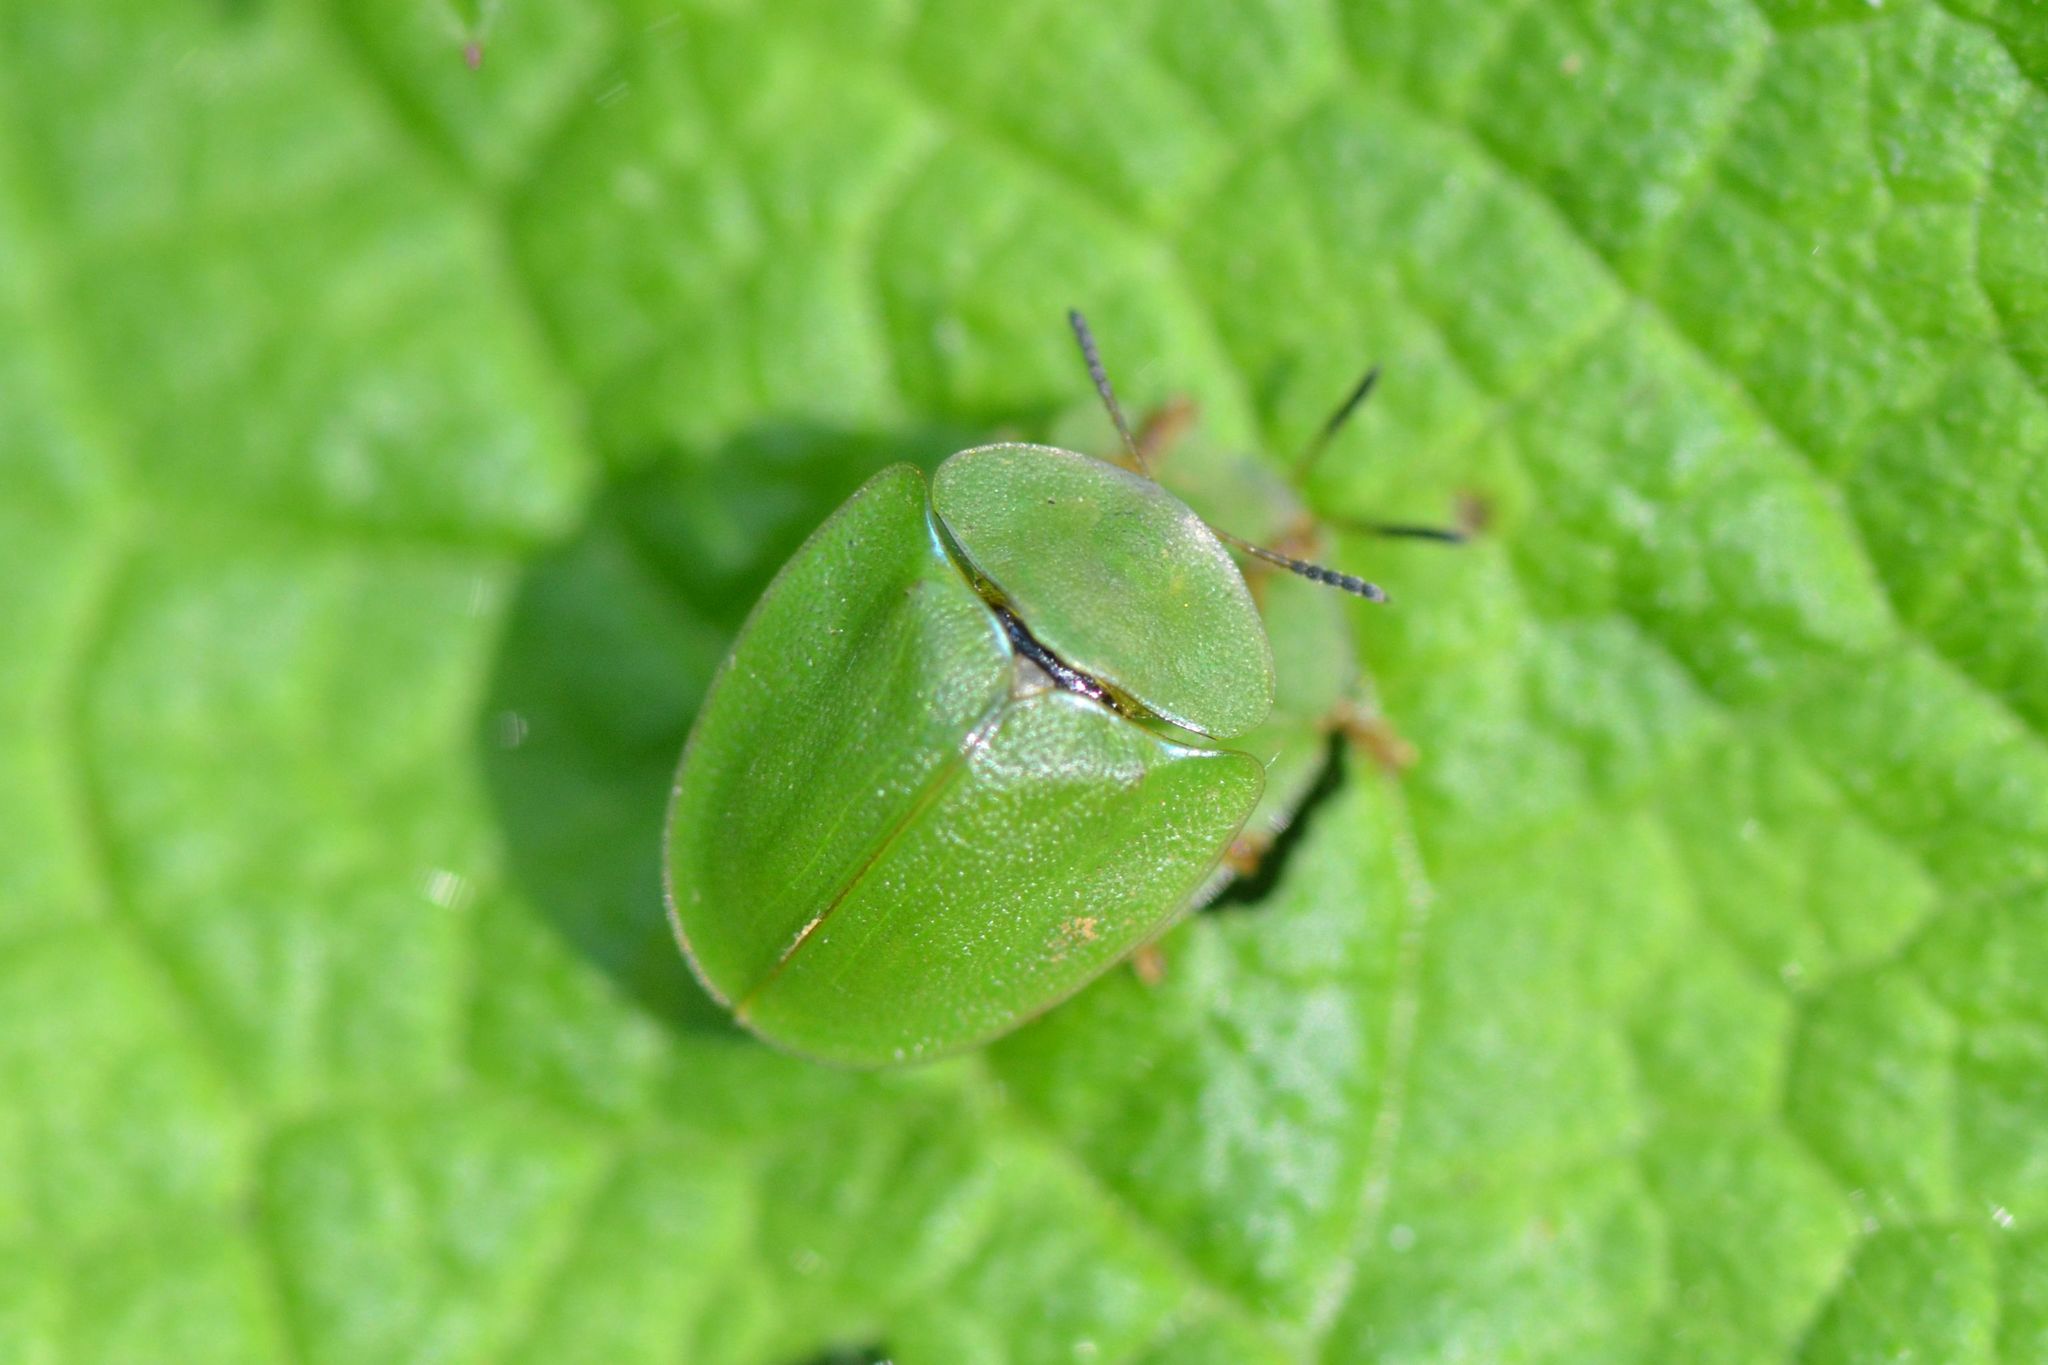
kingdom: Animalia
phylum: Arthropoda
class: Insecta
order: Coleoptera
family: Chrysomelidae
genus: Cassida
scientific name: Cassida viridis
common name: Green tortoise beetle
